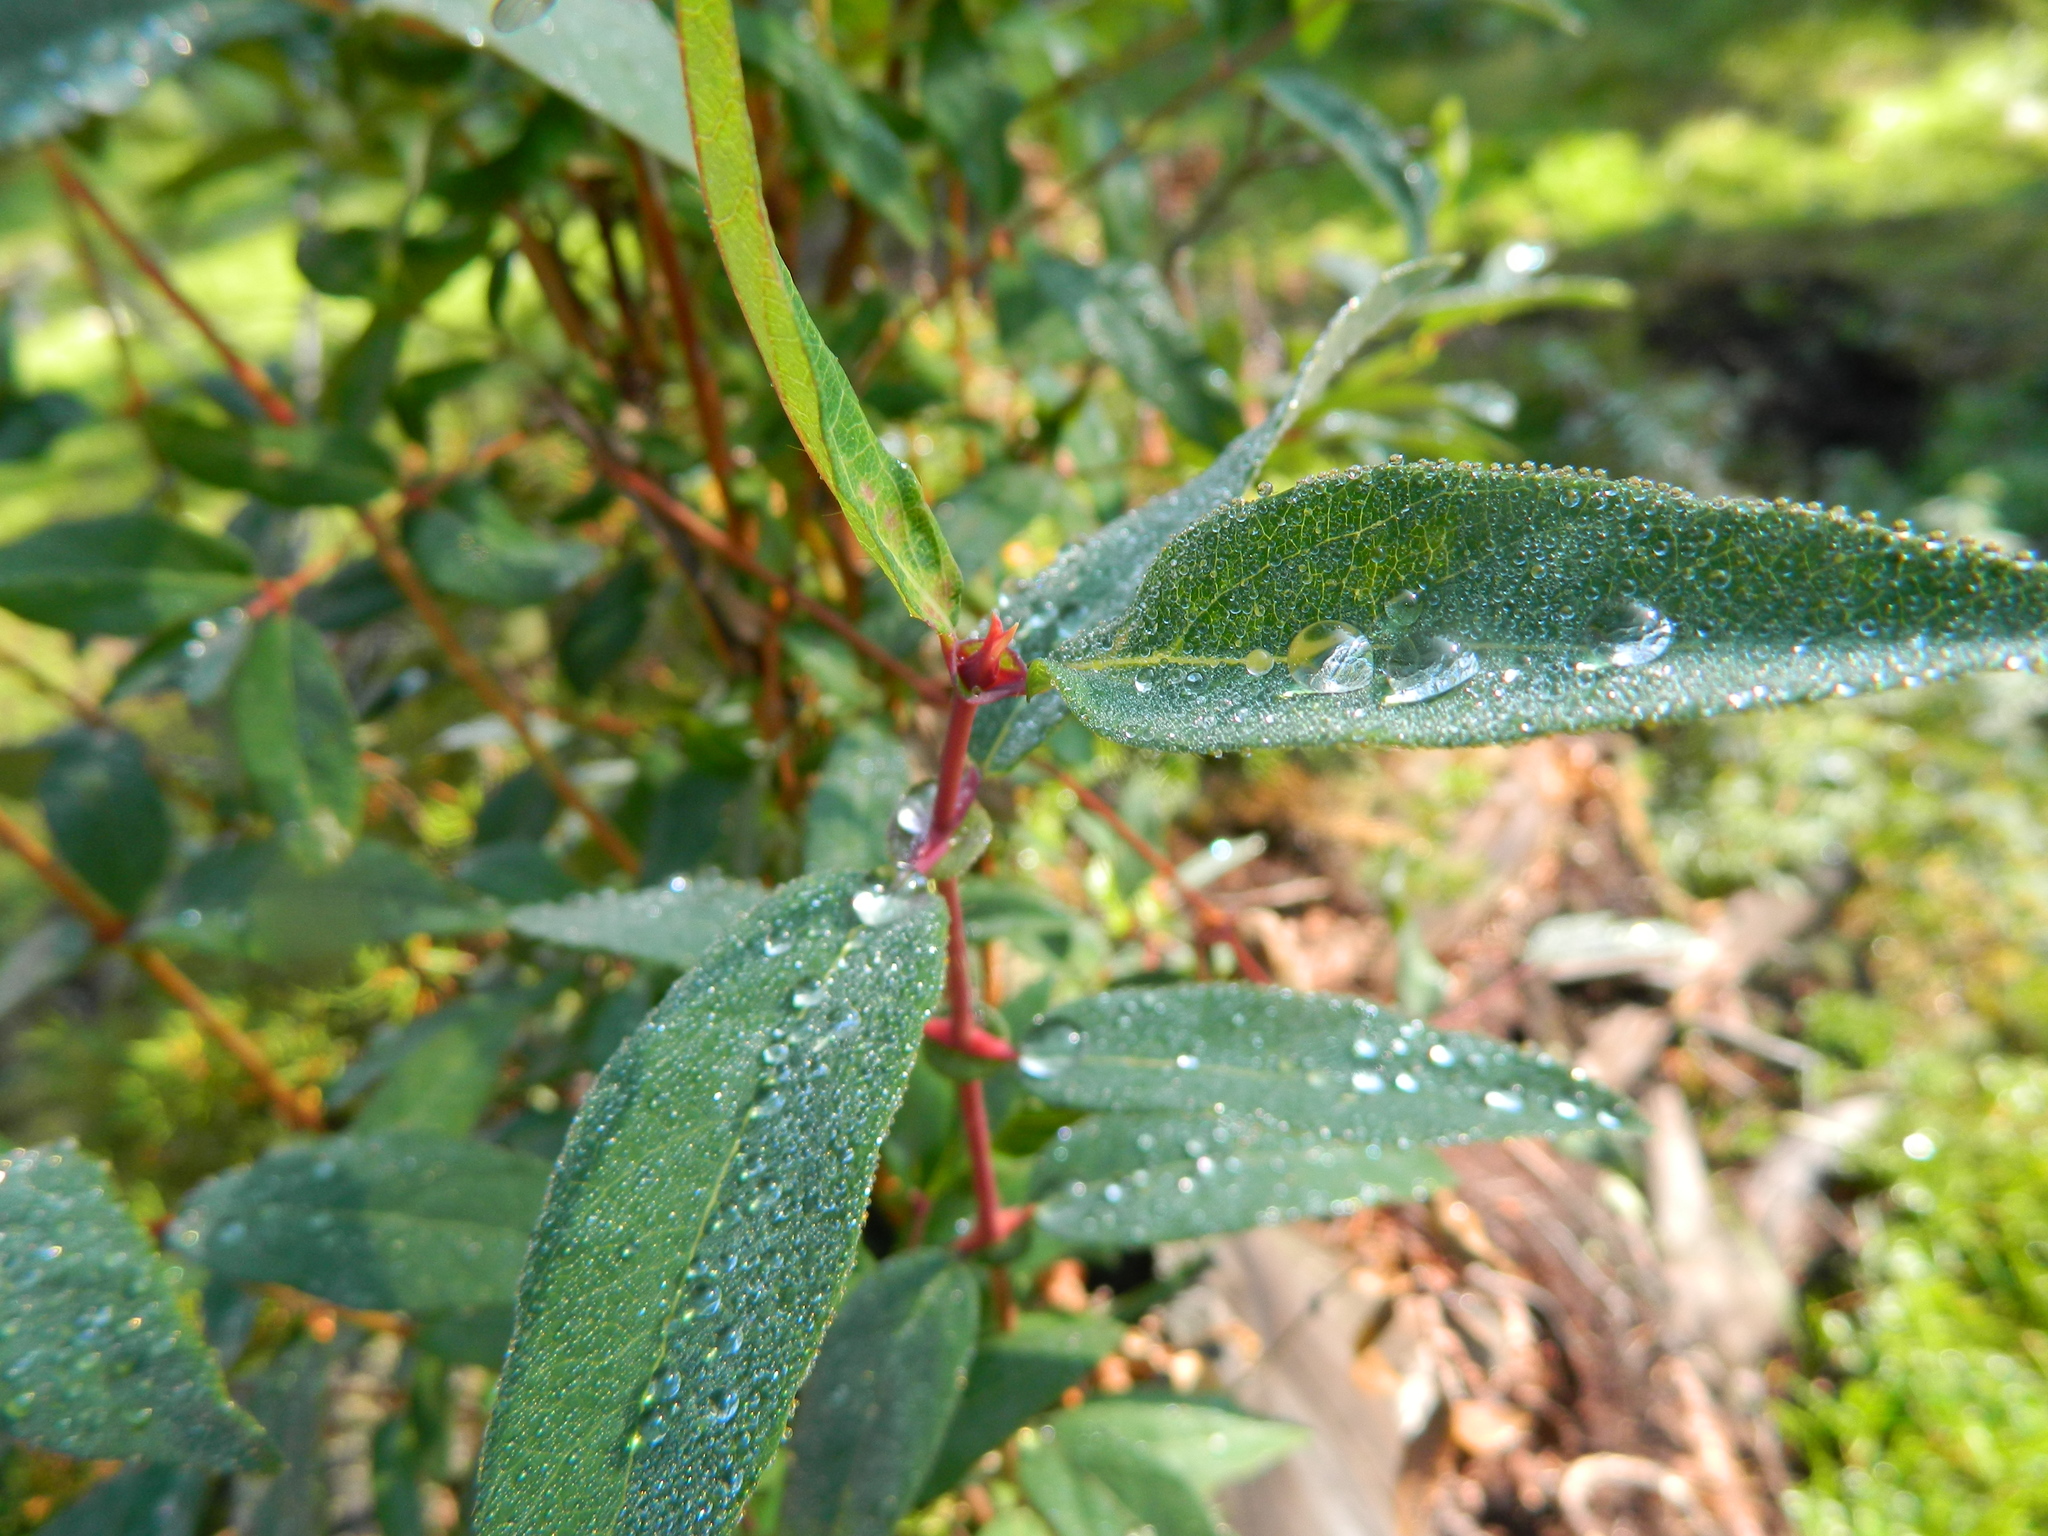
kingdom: Plantae
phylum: Tracheophyta
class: Magnoliopsida
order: Dipsacales
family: Caprifoliaceae
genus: Lonicera
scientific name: Lonicera caerulea
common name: Blue honeysuckle
